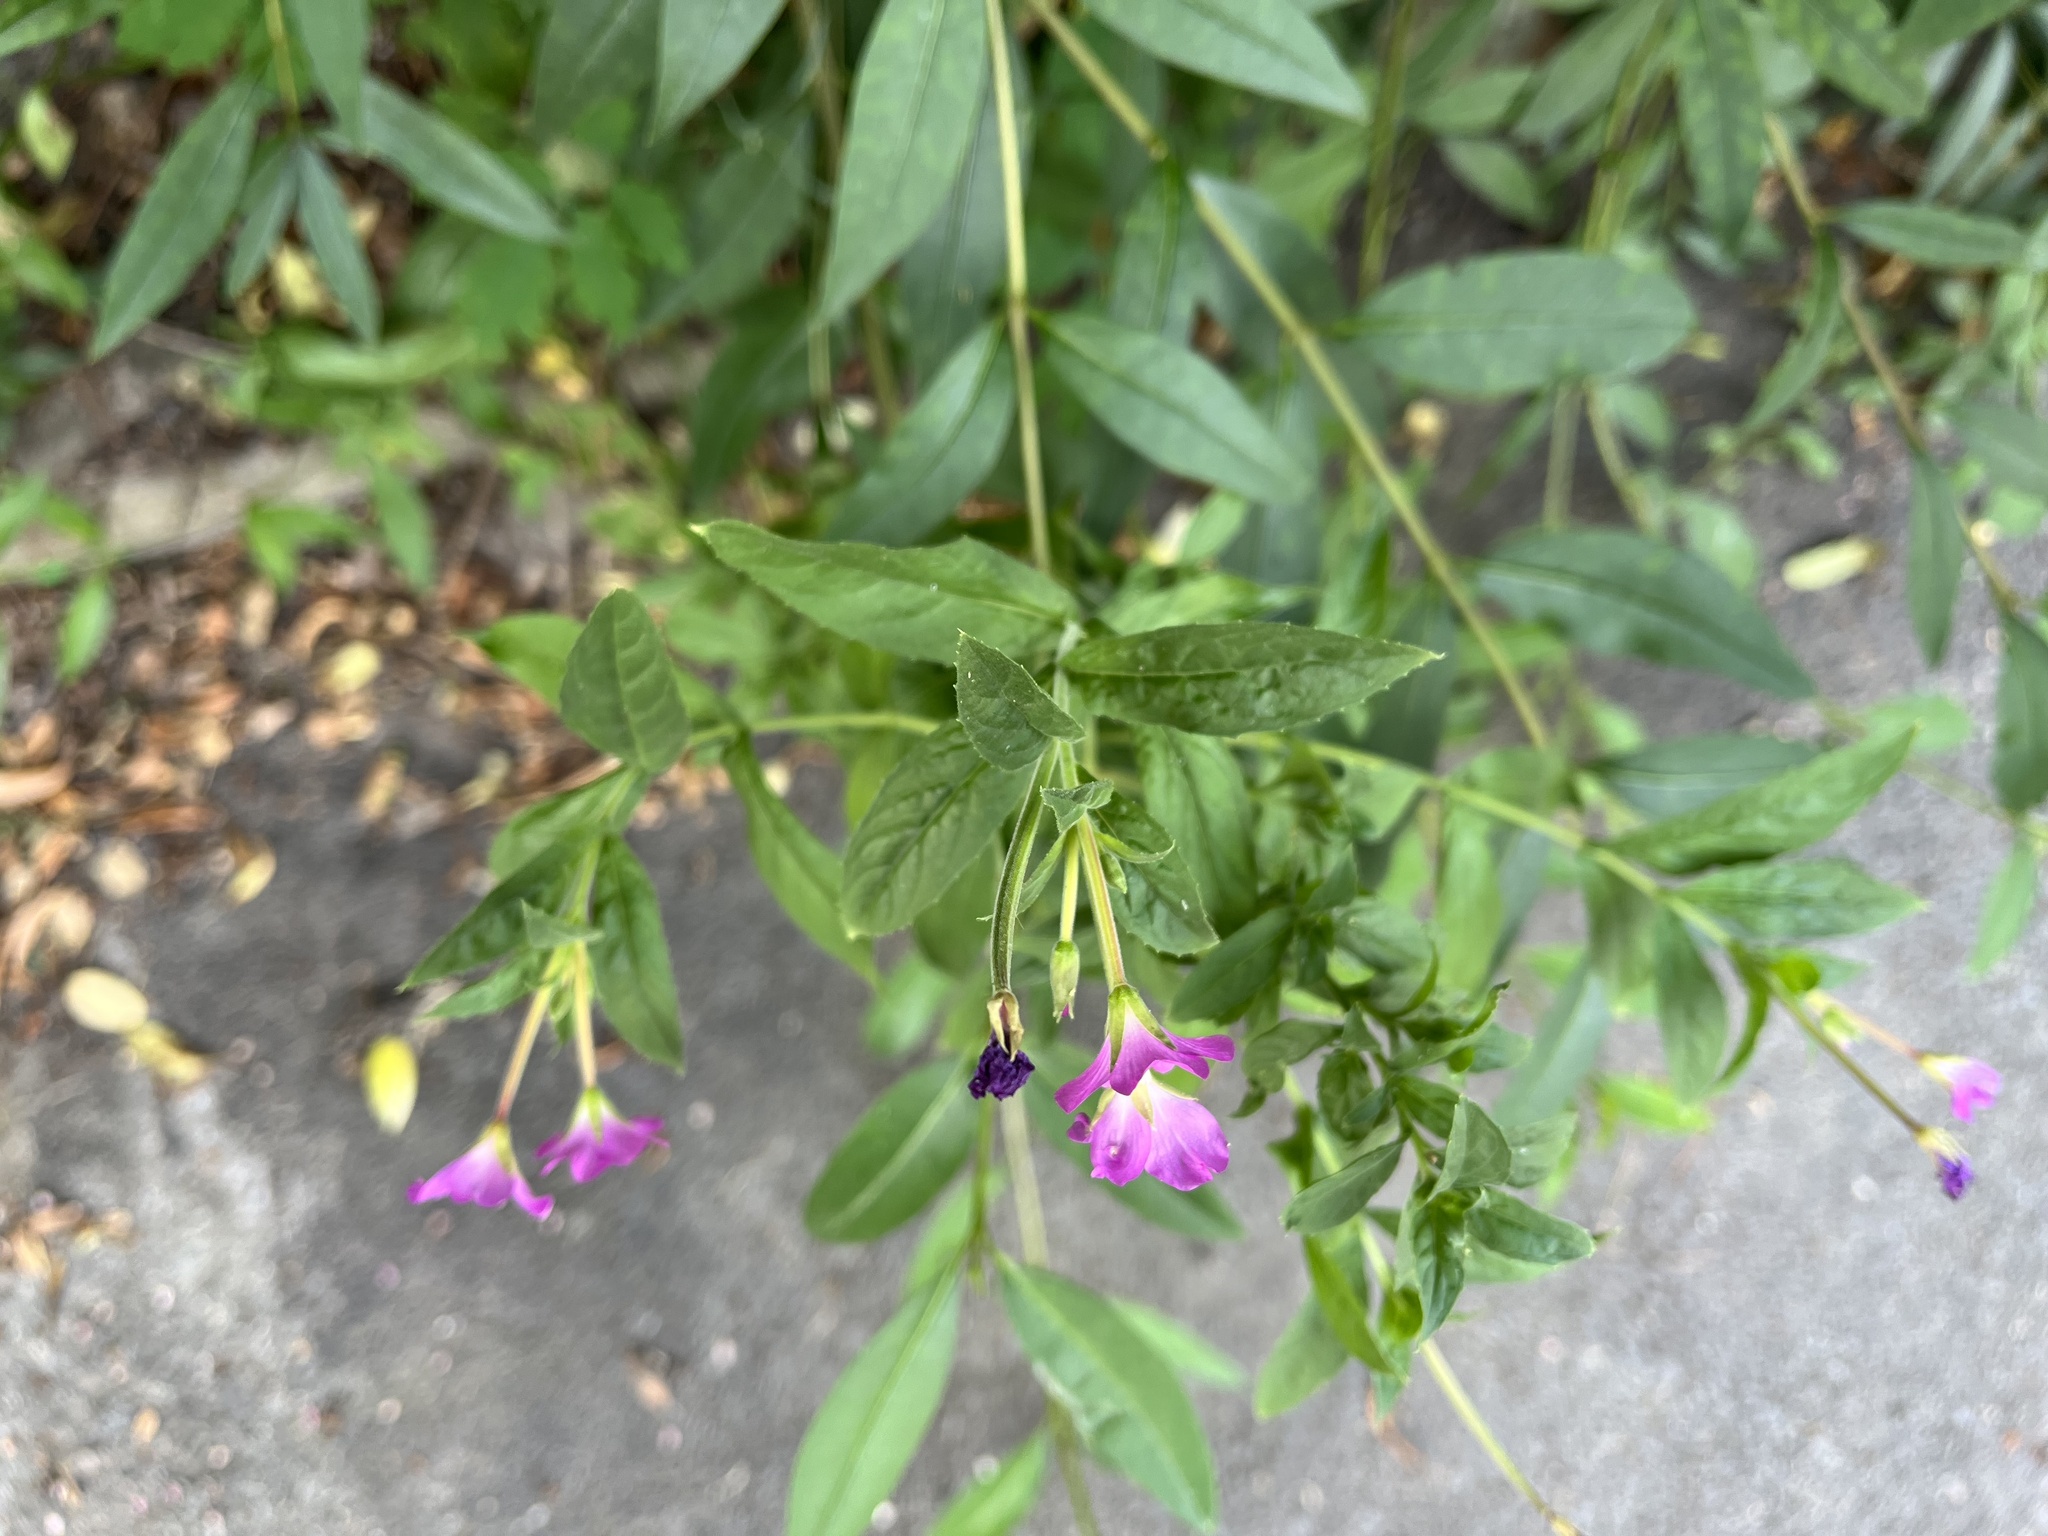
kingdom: Plantae
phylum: Tracheophyta
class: Magnoliopsida
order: Myrtales
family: Onagraceae
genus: Epilobium
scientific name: Epilobium hirsutum
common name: Great willowherb
